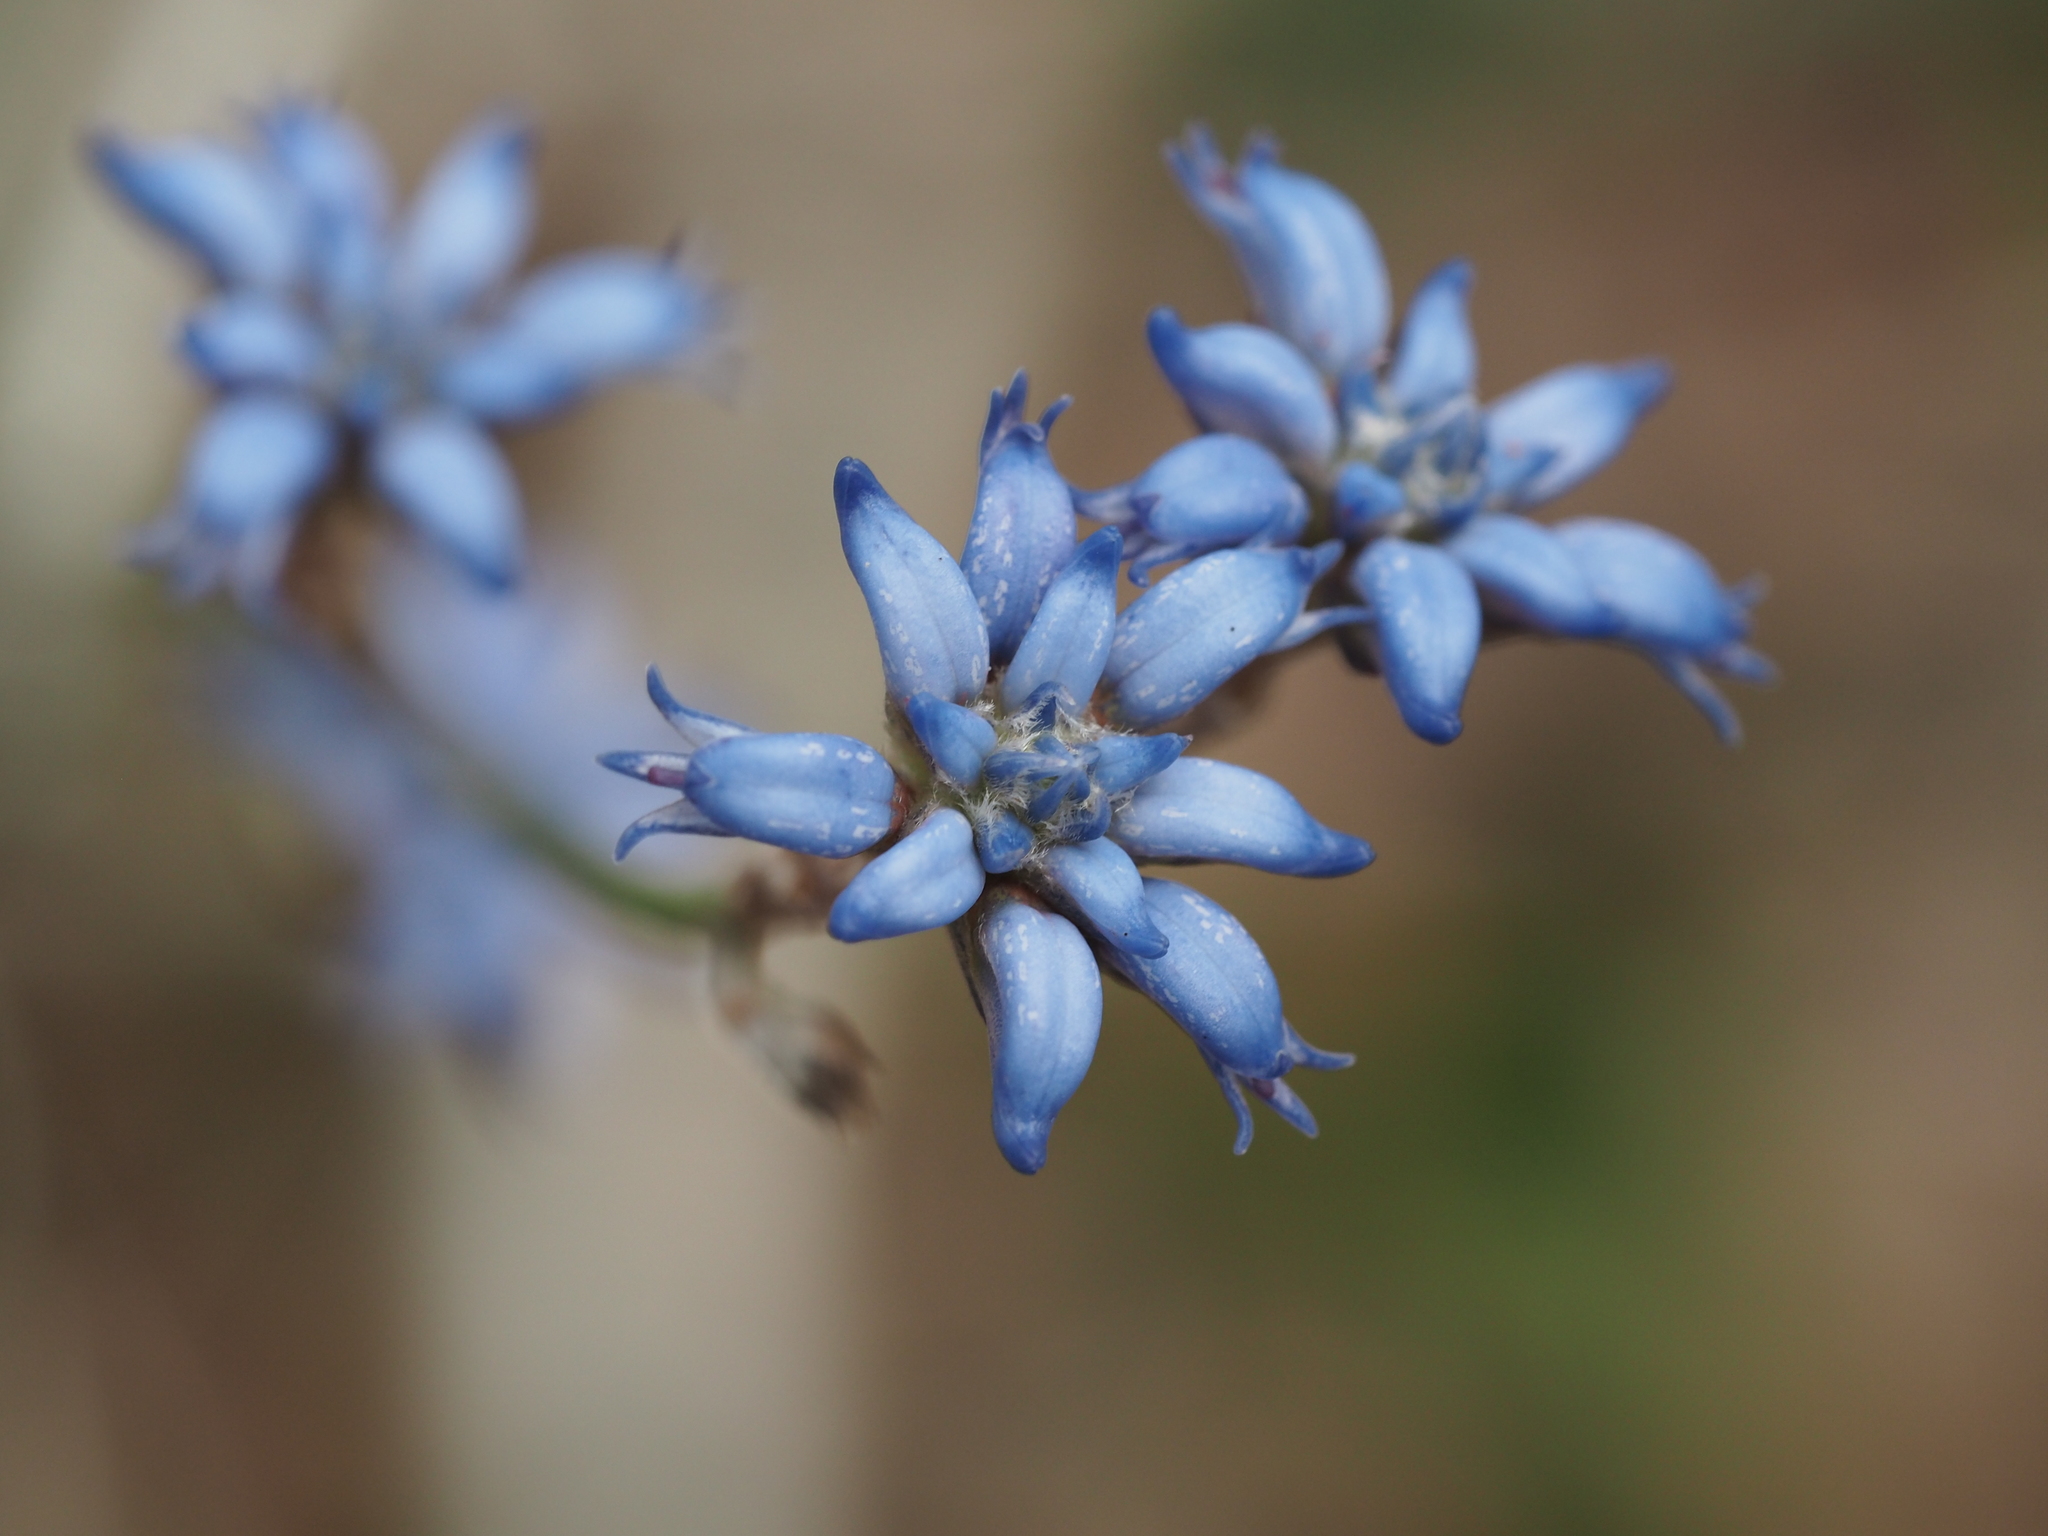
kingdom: Plantae
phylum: Tracheophyta
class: Magnoliopsida
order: Proteales
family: Proteaceae
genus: Conospermum
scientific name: Conospermum caeruleum
